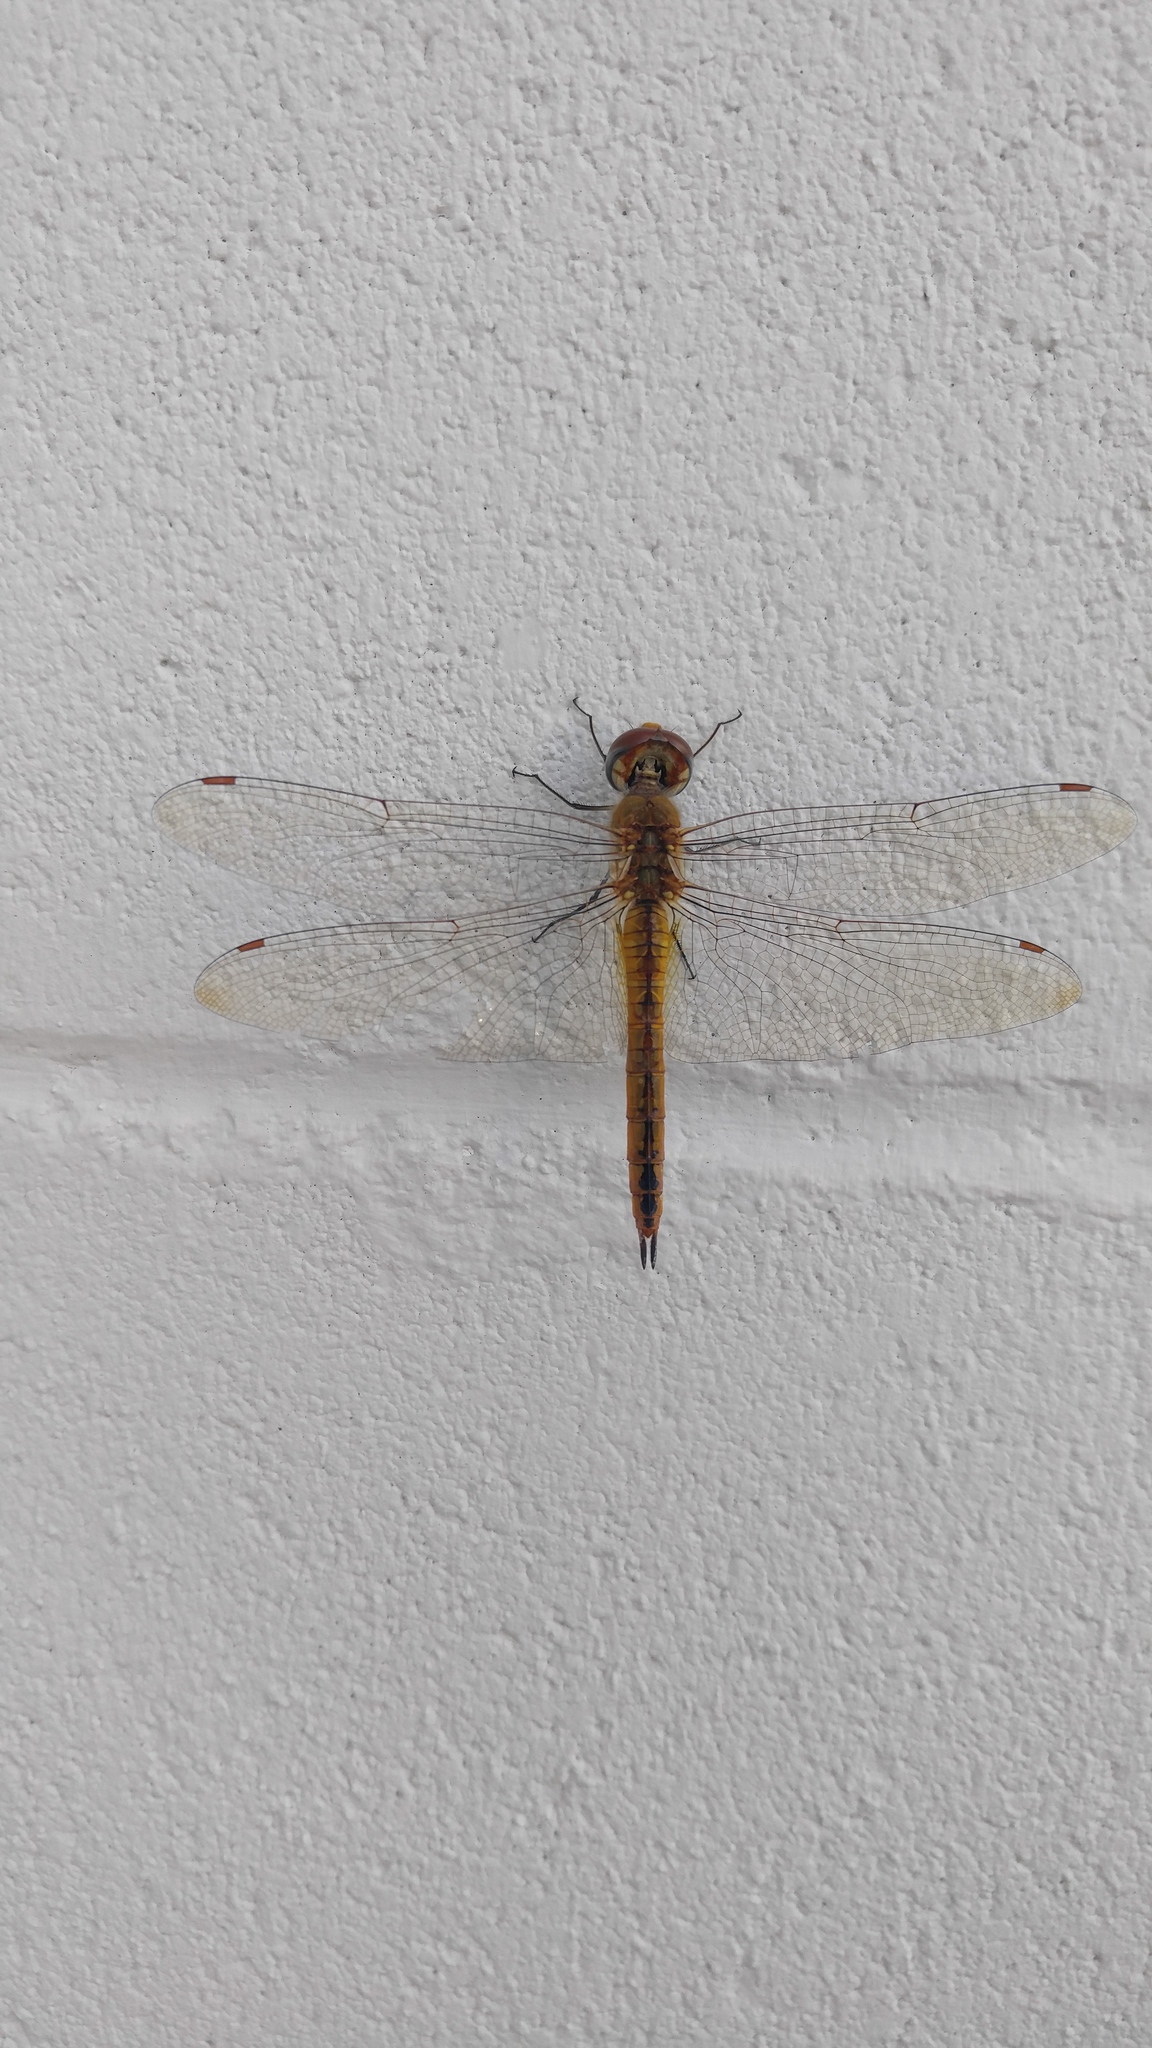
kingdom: Animalia
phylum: Arthropoda
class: Insecta
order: Odonata
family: Libellulidae
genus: Pantala
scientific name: Pantala flavescens
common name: Wandering glider
